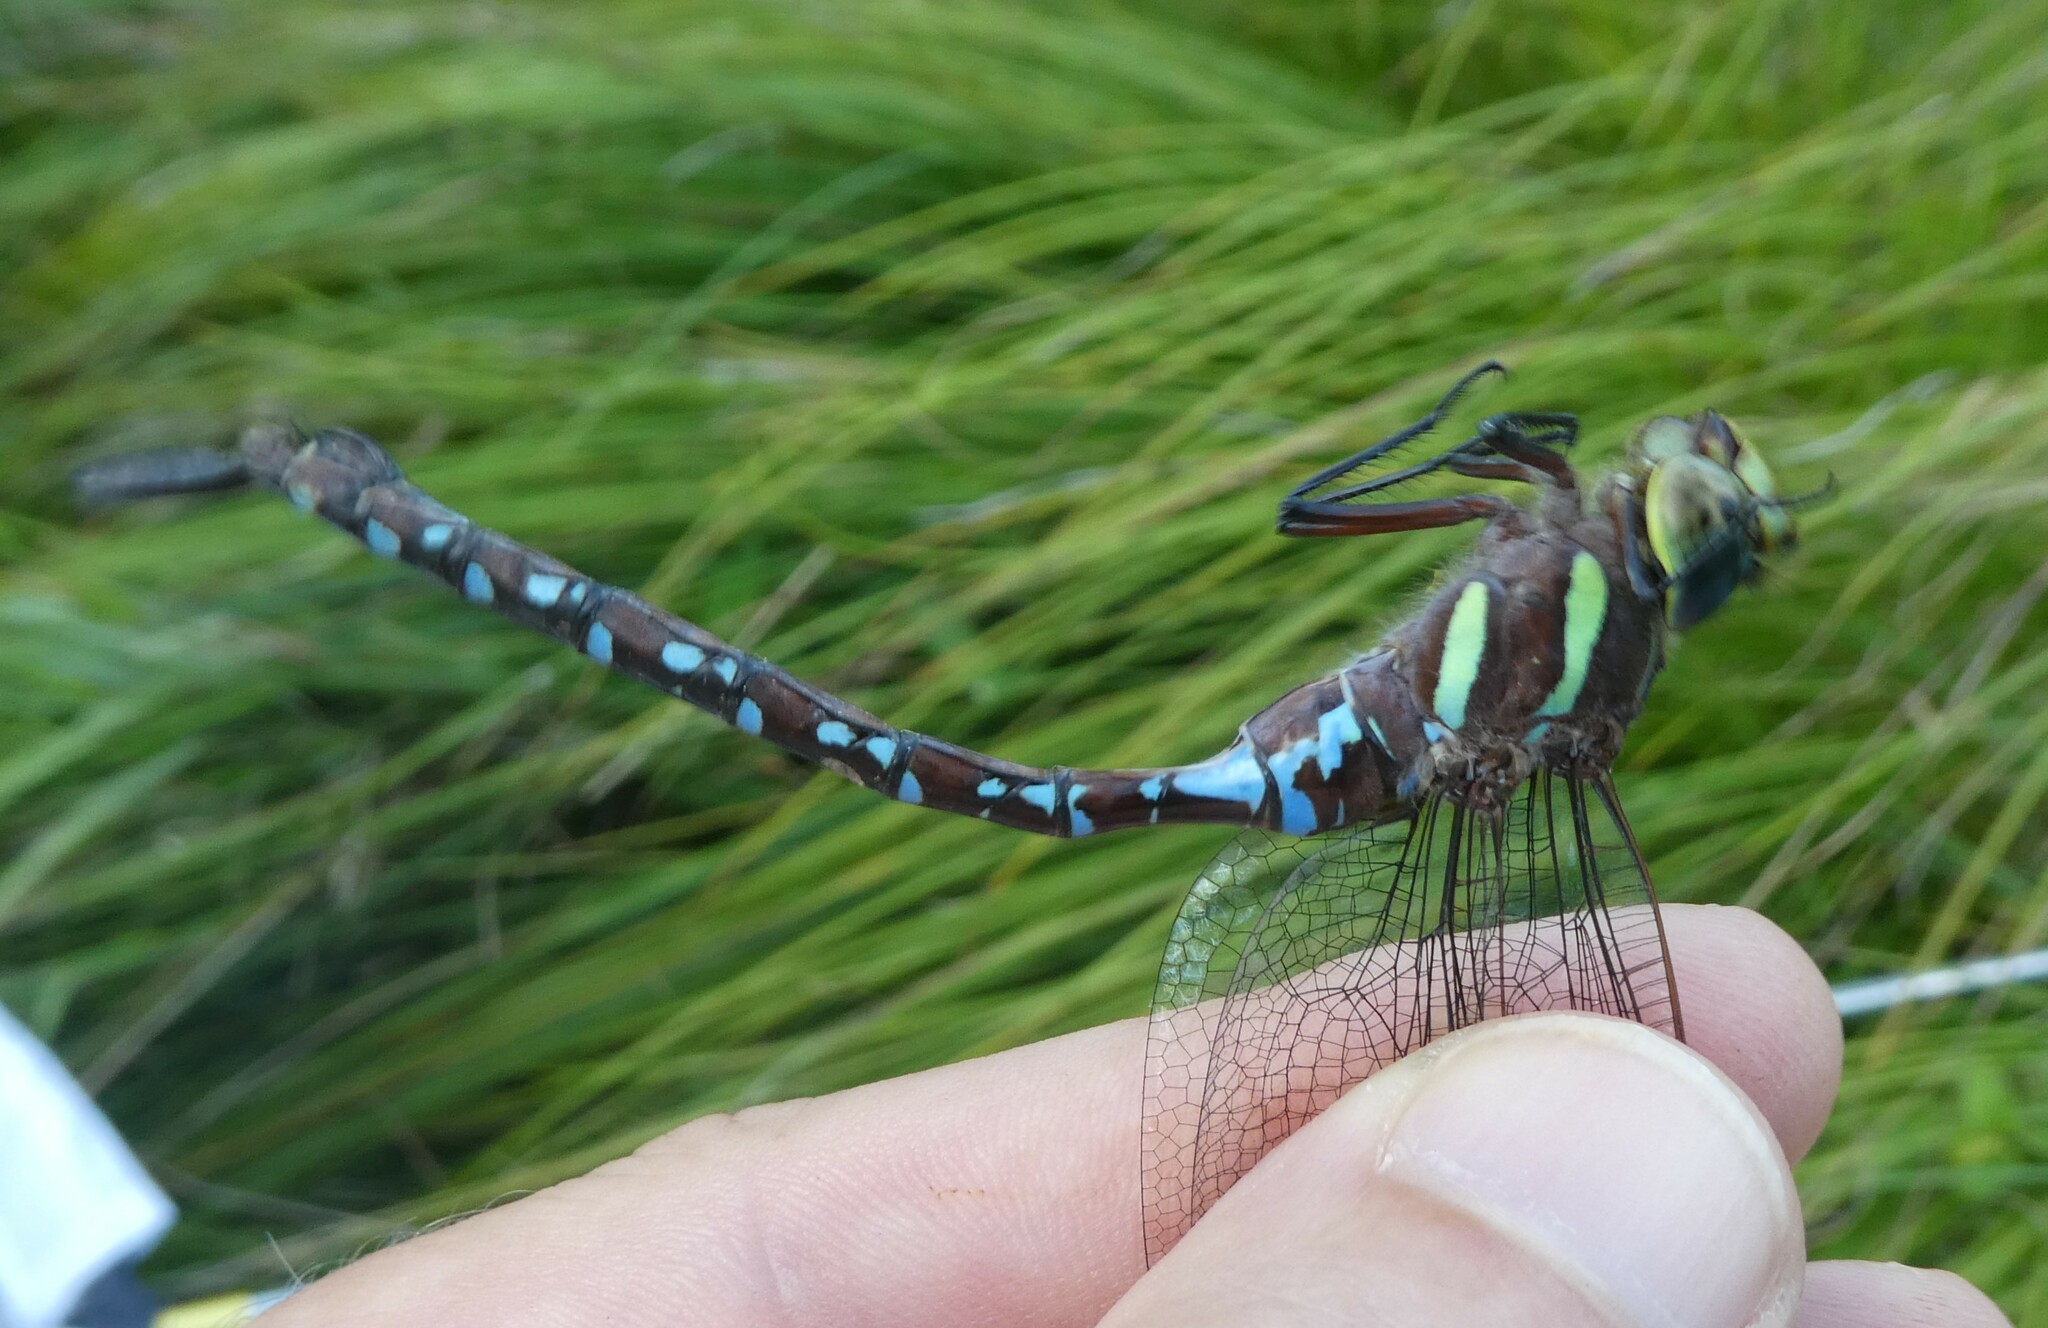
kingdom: Animalia
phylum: Arthropoda
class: Insecta
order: Odonata
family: Aeshnidae
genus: Aeshna
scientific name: Aeshna tuberculifera
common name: Aeschne à tubercules
